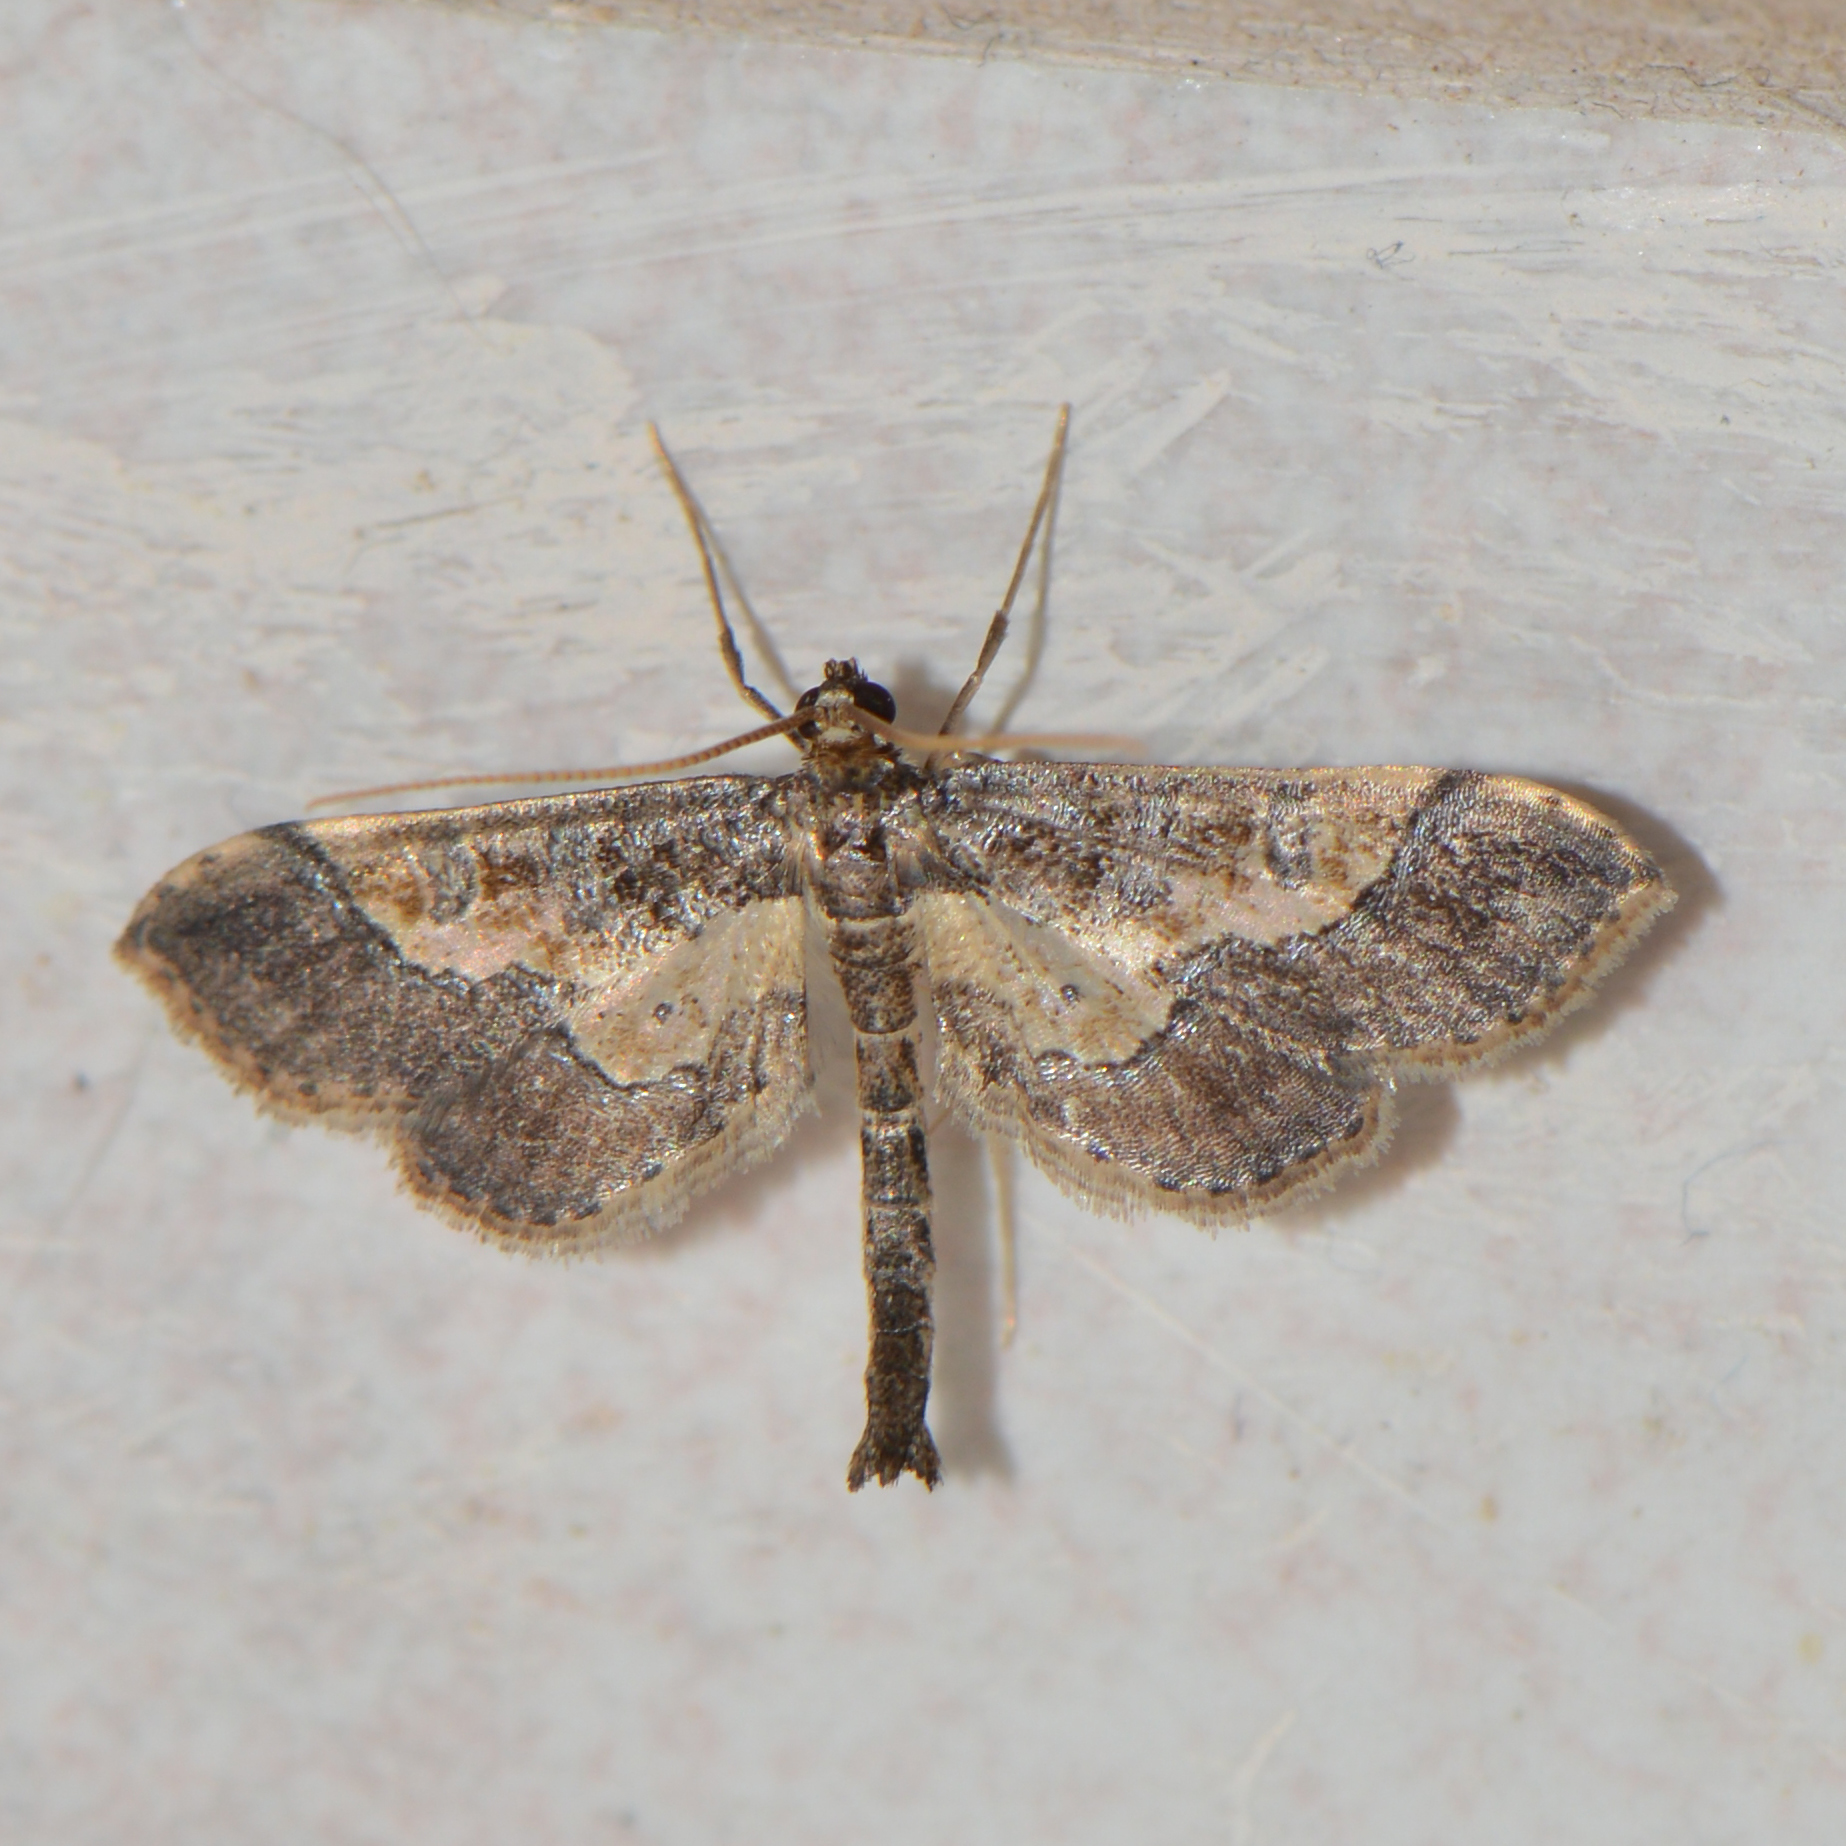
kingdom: Animalia
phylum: Arthropoda
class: Insecta
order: Lepidoptera
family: Crambidae
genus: Hydriris
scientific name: Hydriris ornatalis
